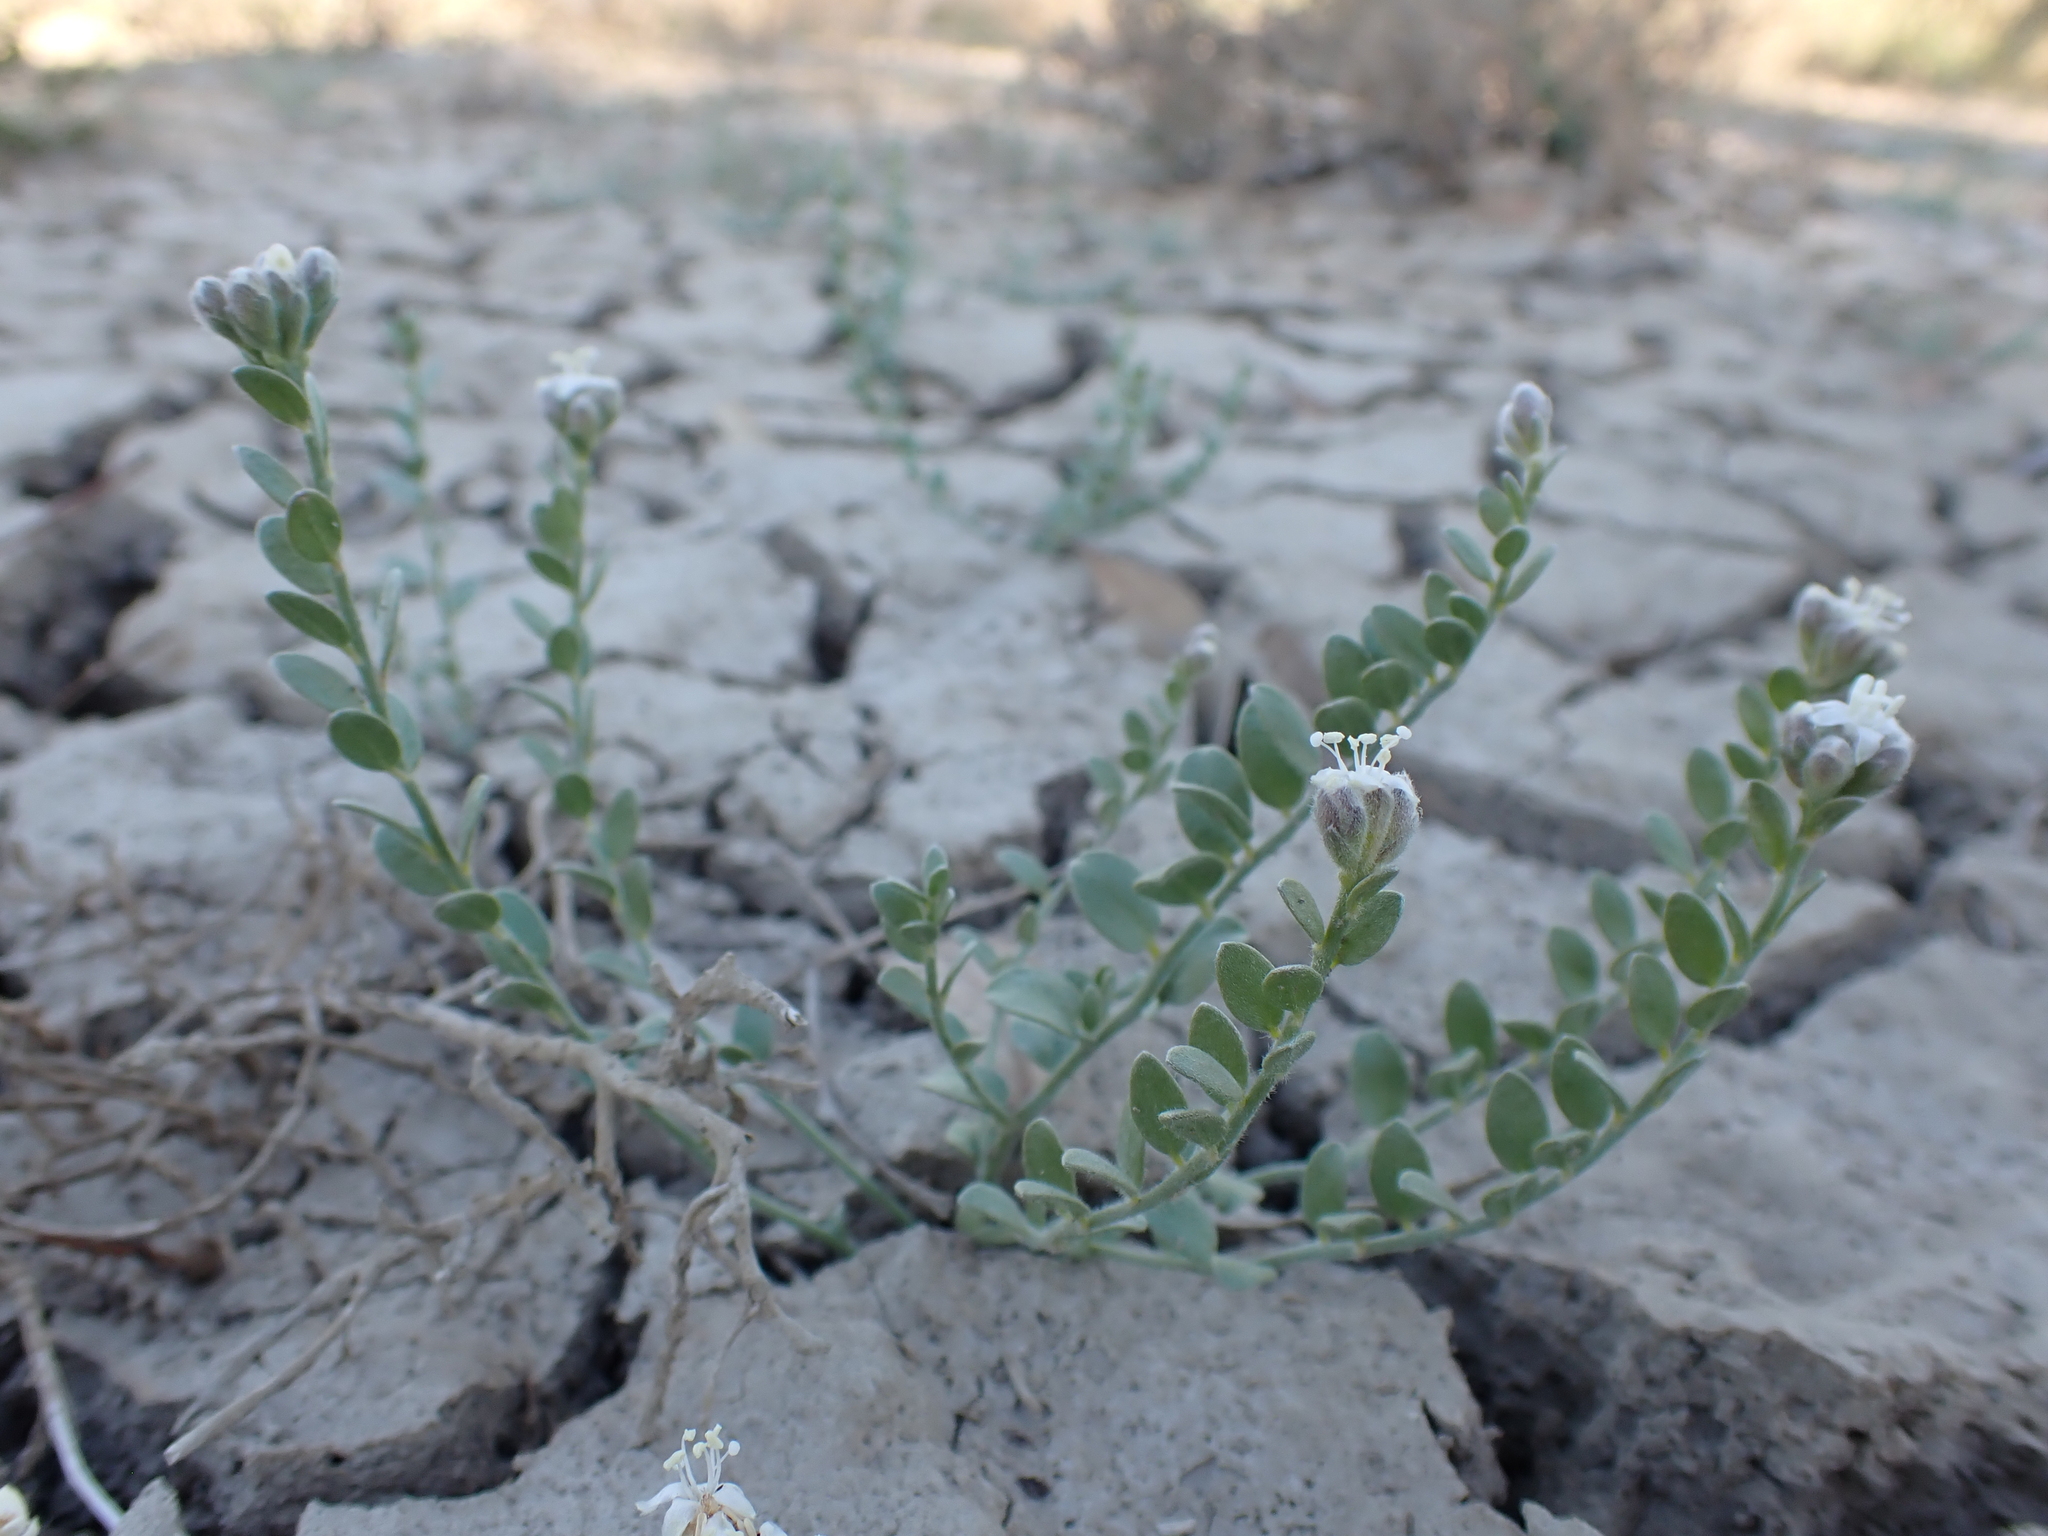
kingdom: Plantae
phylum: Tracheophyta
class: Magnoliopsida
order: Solanales
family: Convolvulaceae
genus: Cressa
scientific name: Cressa australis
